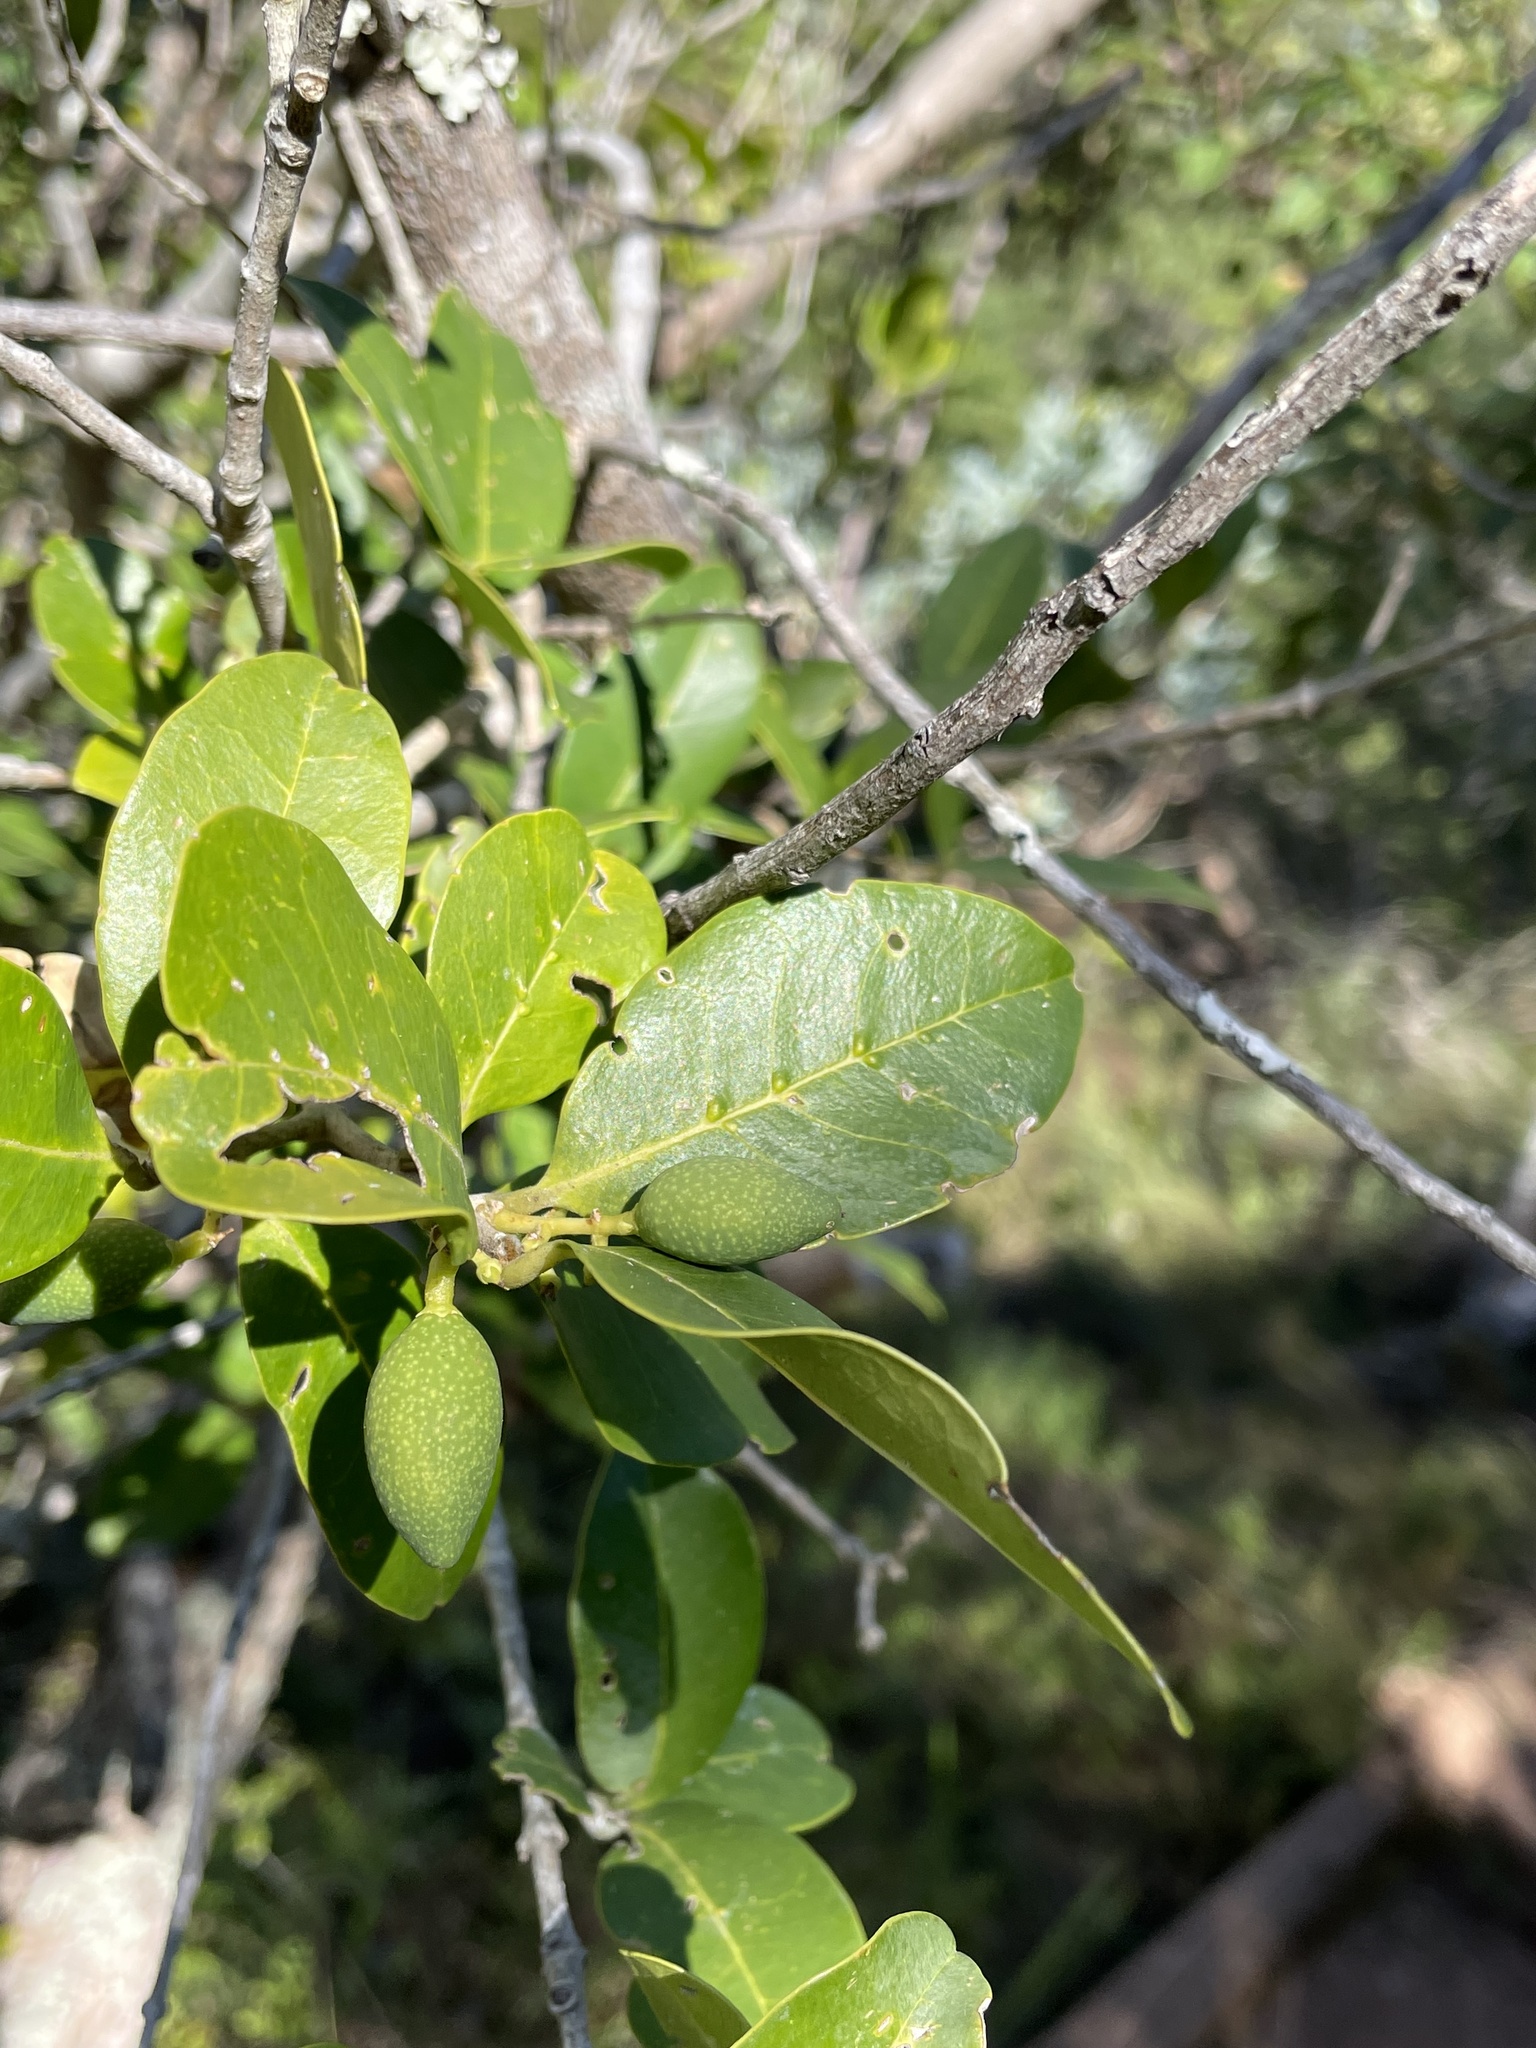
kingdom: Plantae
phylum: Tracheophyta
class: Magnoliopsida
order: Lamiales
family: Oleaceae
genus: Noronhia
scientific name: Noronhia foveolata
